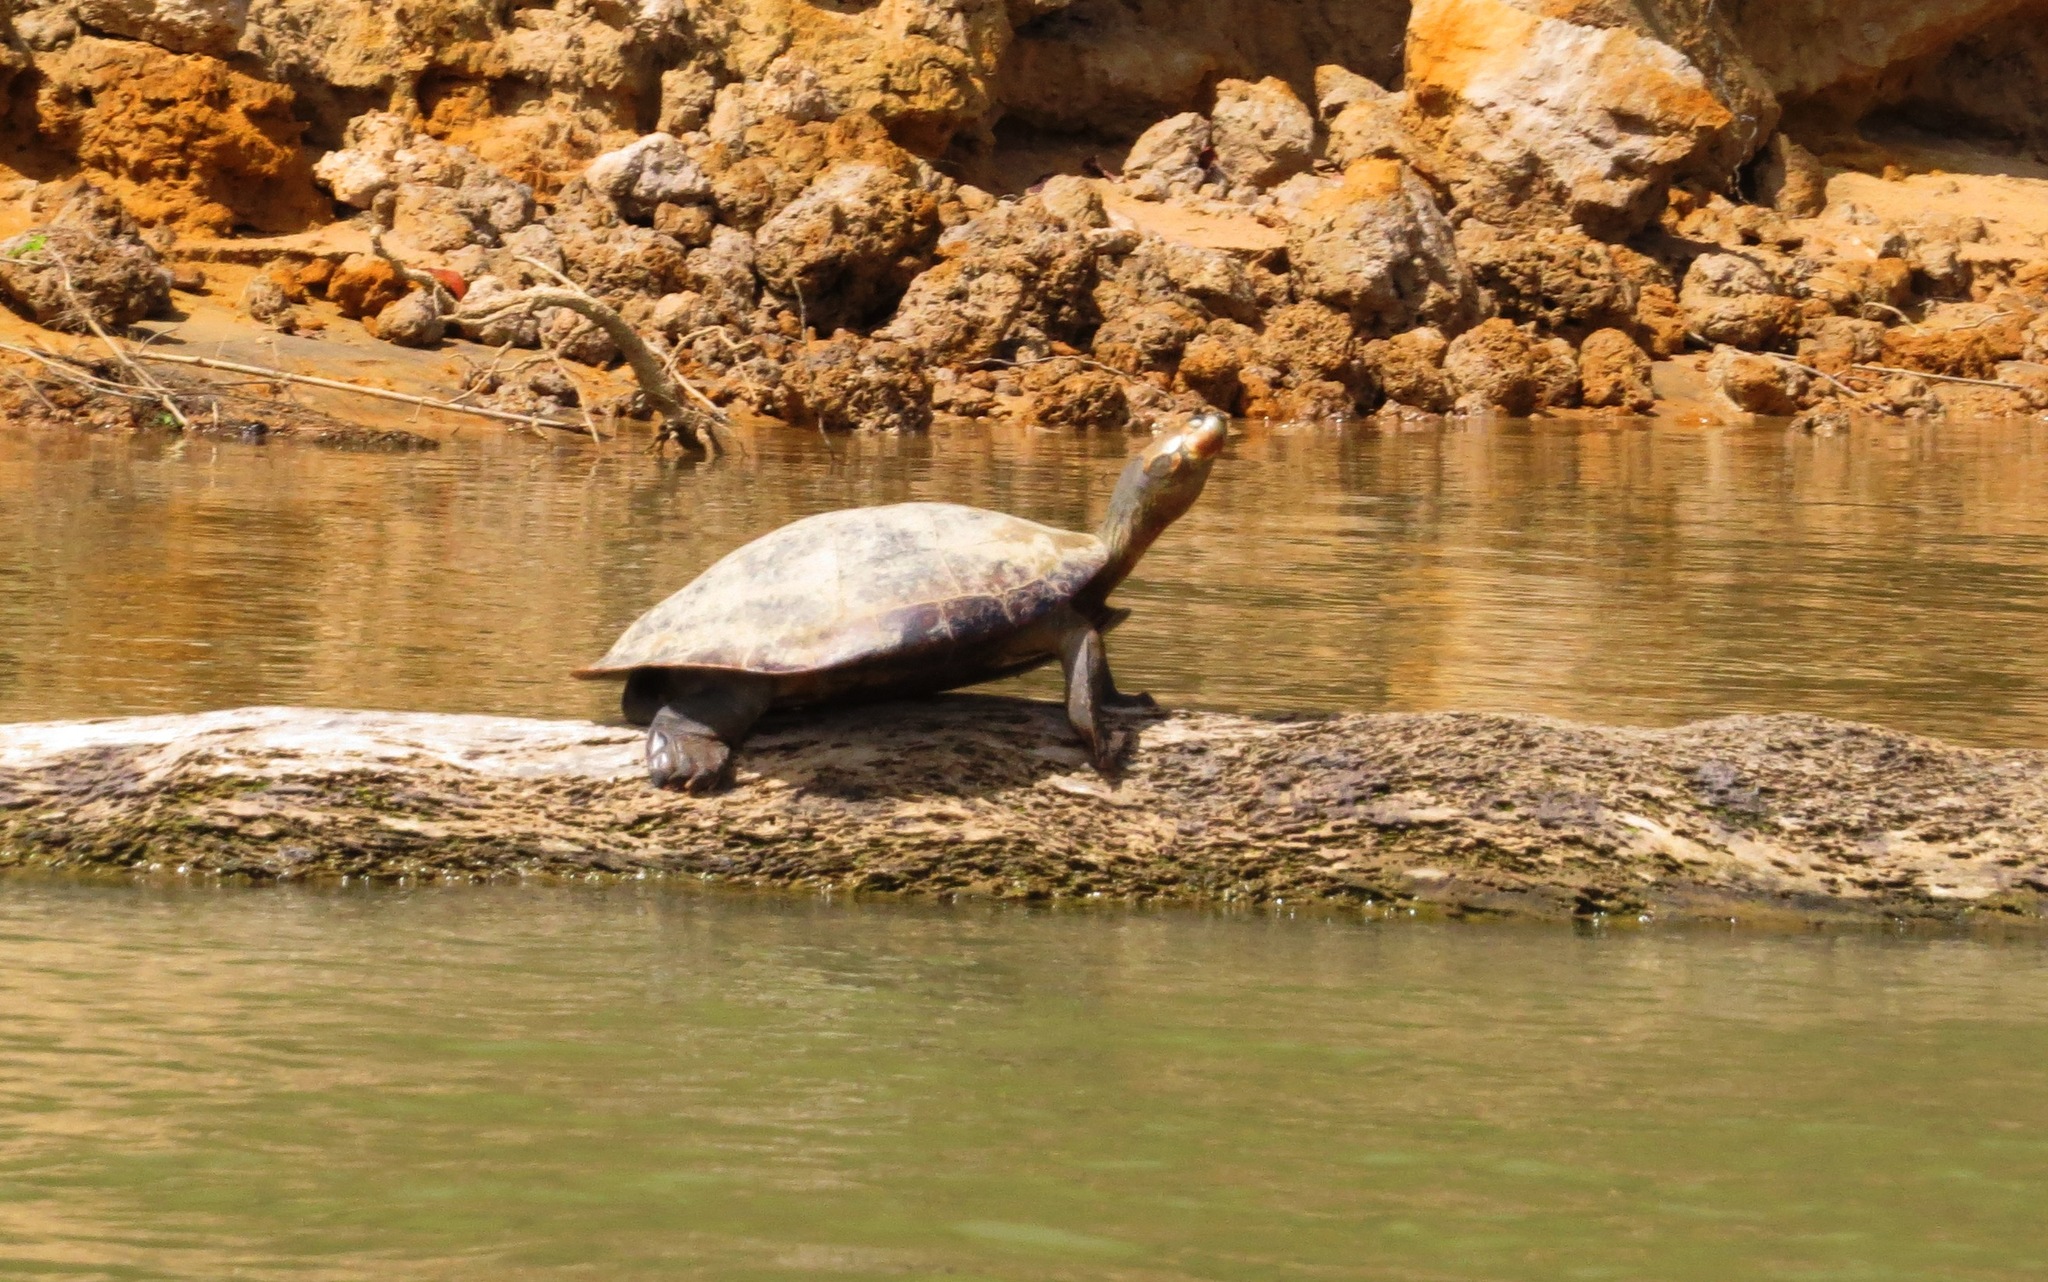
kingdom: Animalia
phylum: Chordata
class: Testudines
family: Podocnemididae
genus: Podocnemis
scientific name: Podocnemis unifilis
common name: Yellow-spotted amazon river turtle
